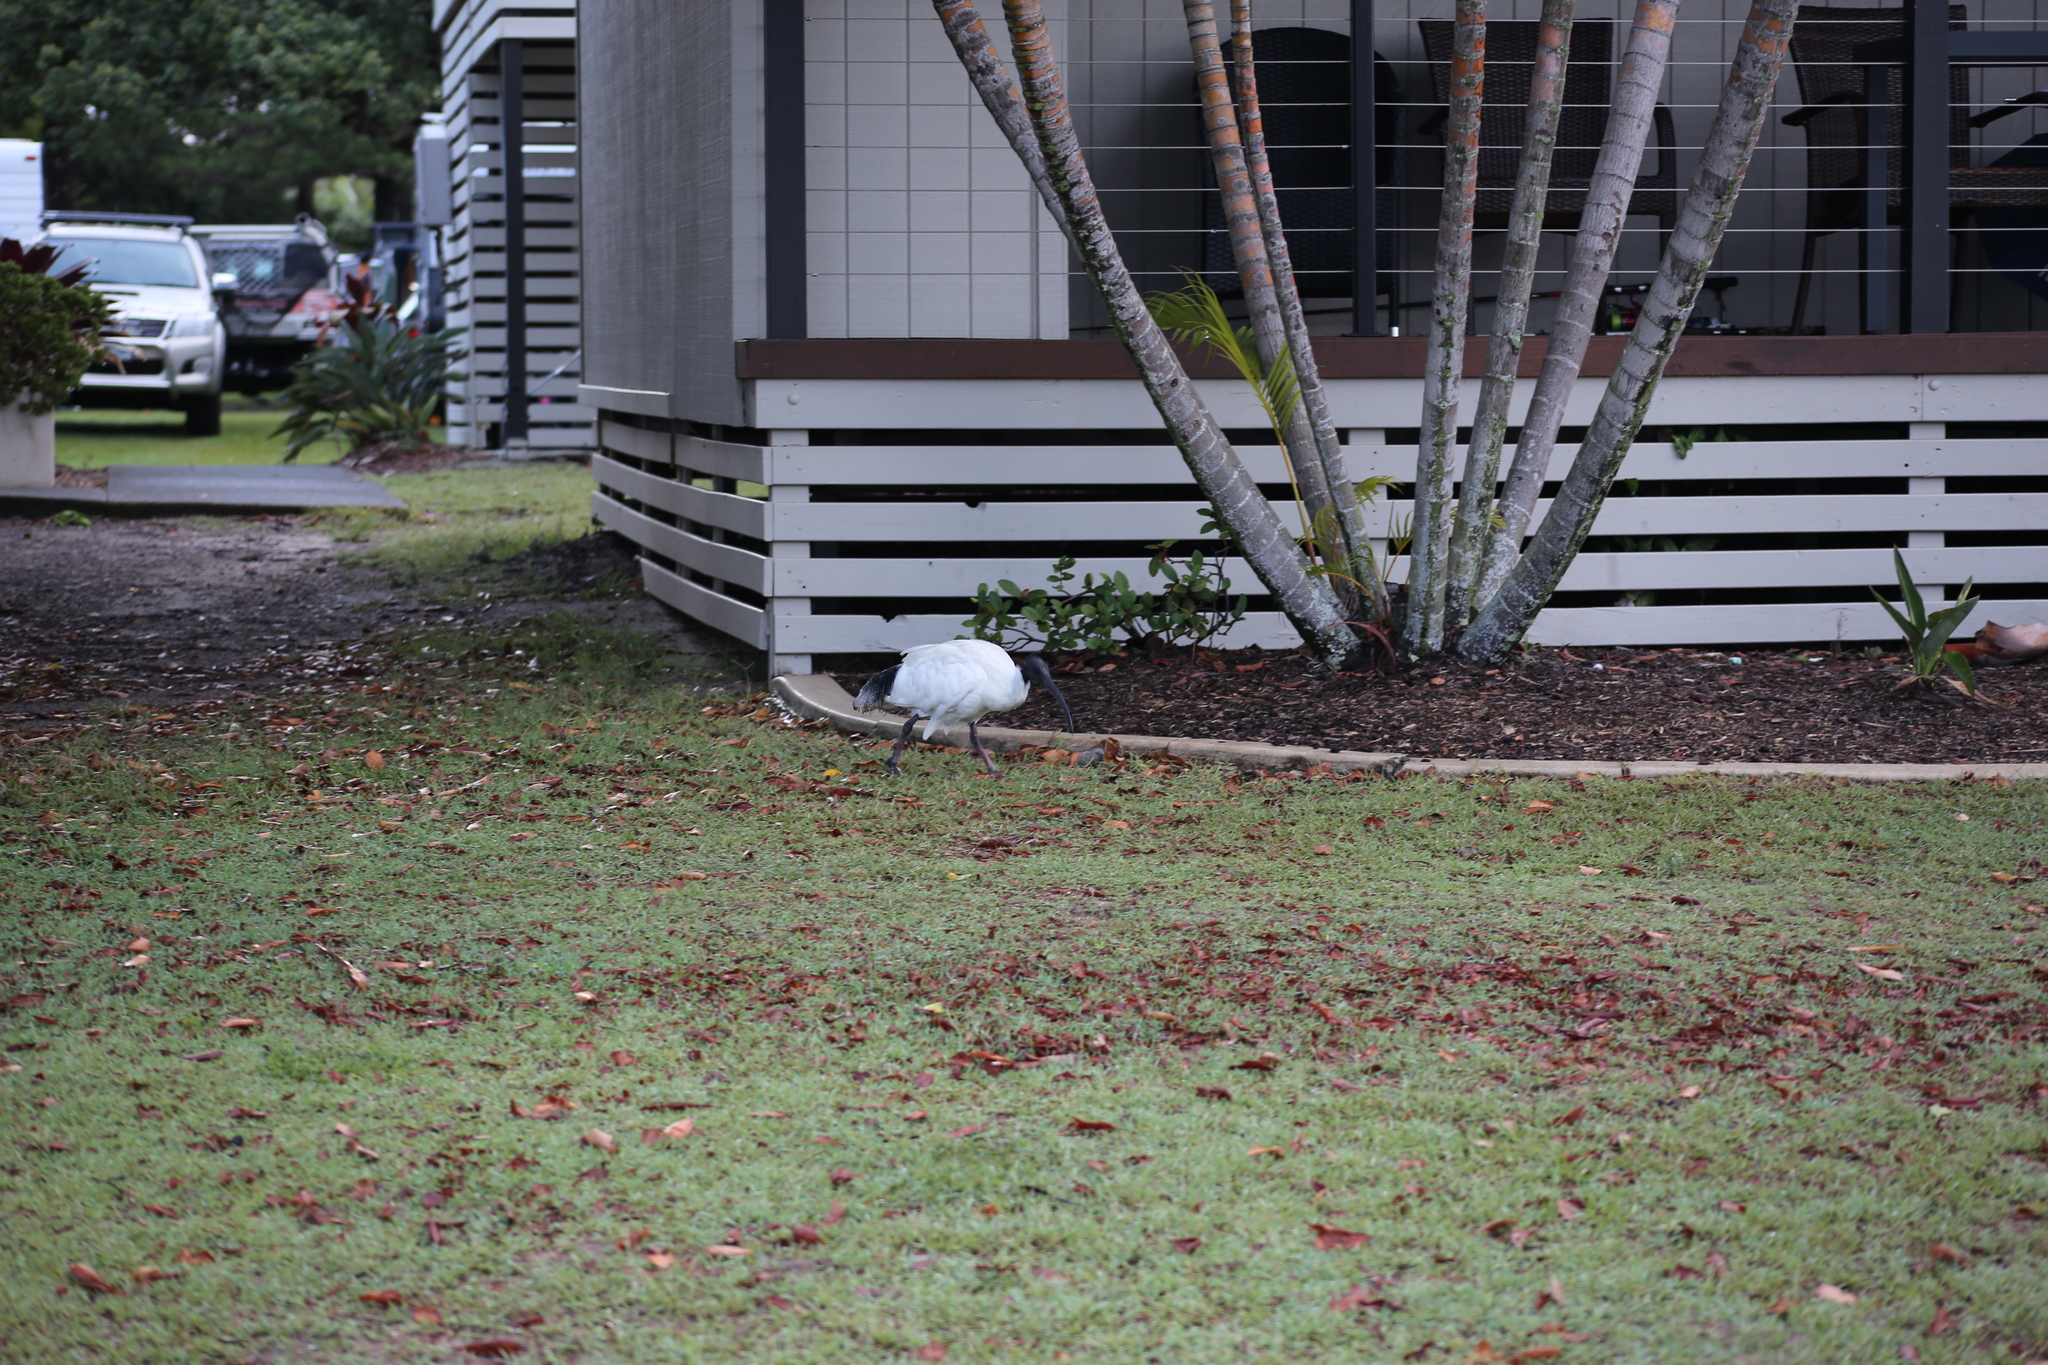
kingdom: Animalia
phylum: Chordata
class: Aves
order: Pelecaniformes
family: Threskiornithidae
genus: Threskiornis
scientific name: Threskiornis molucca
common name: Australian white ibis
